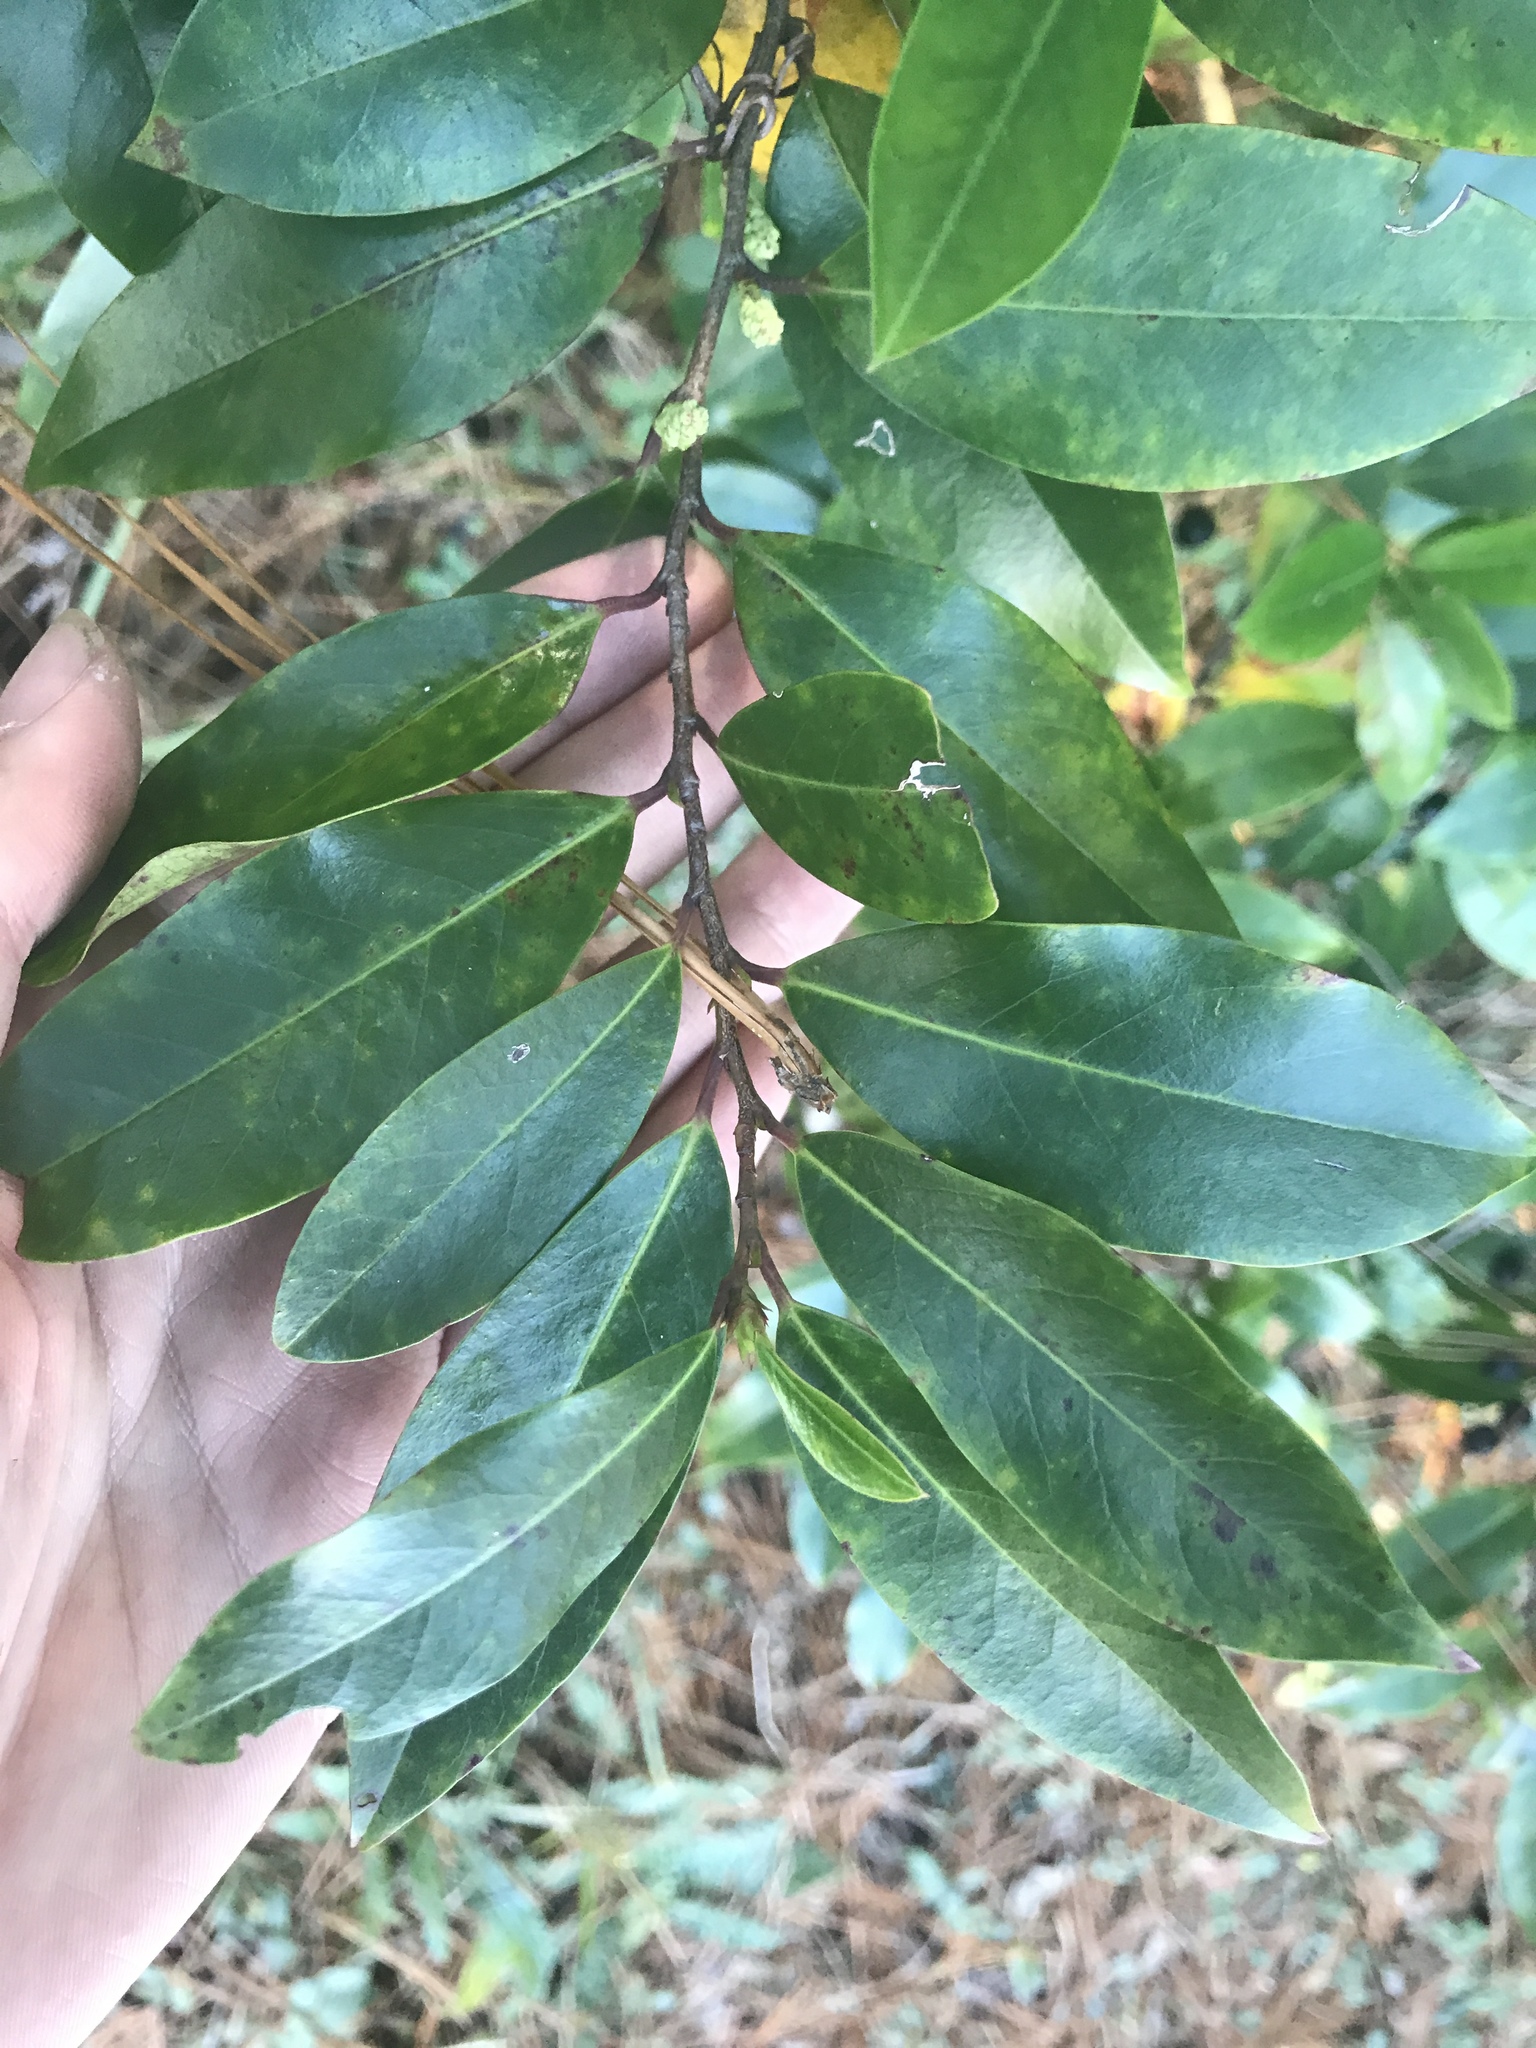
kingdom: Plantae
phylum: Tracheophyta
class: Magnoliopsida
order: Rosales
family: Rosaceae
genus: Prunus
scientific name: Prunus caroliniana
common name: Carolina laurel cherry
